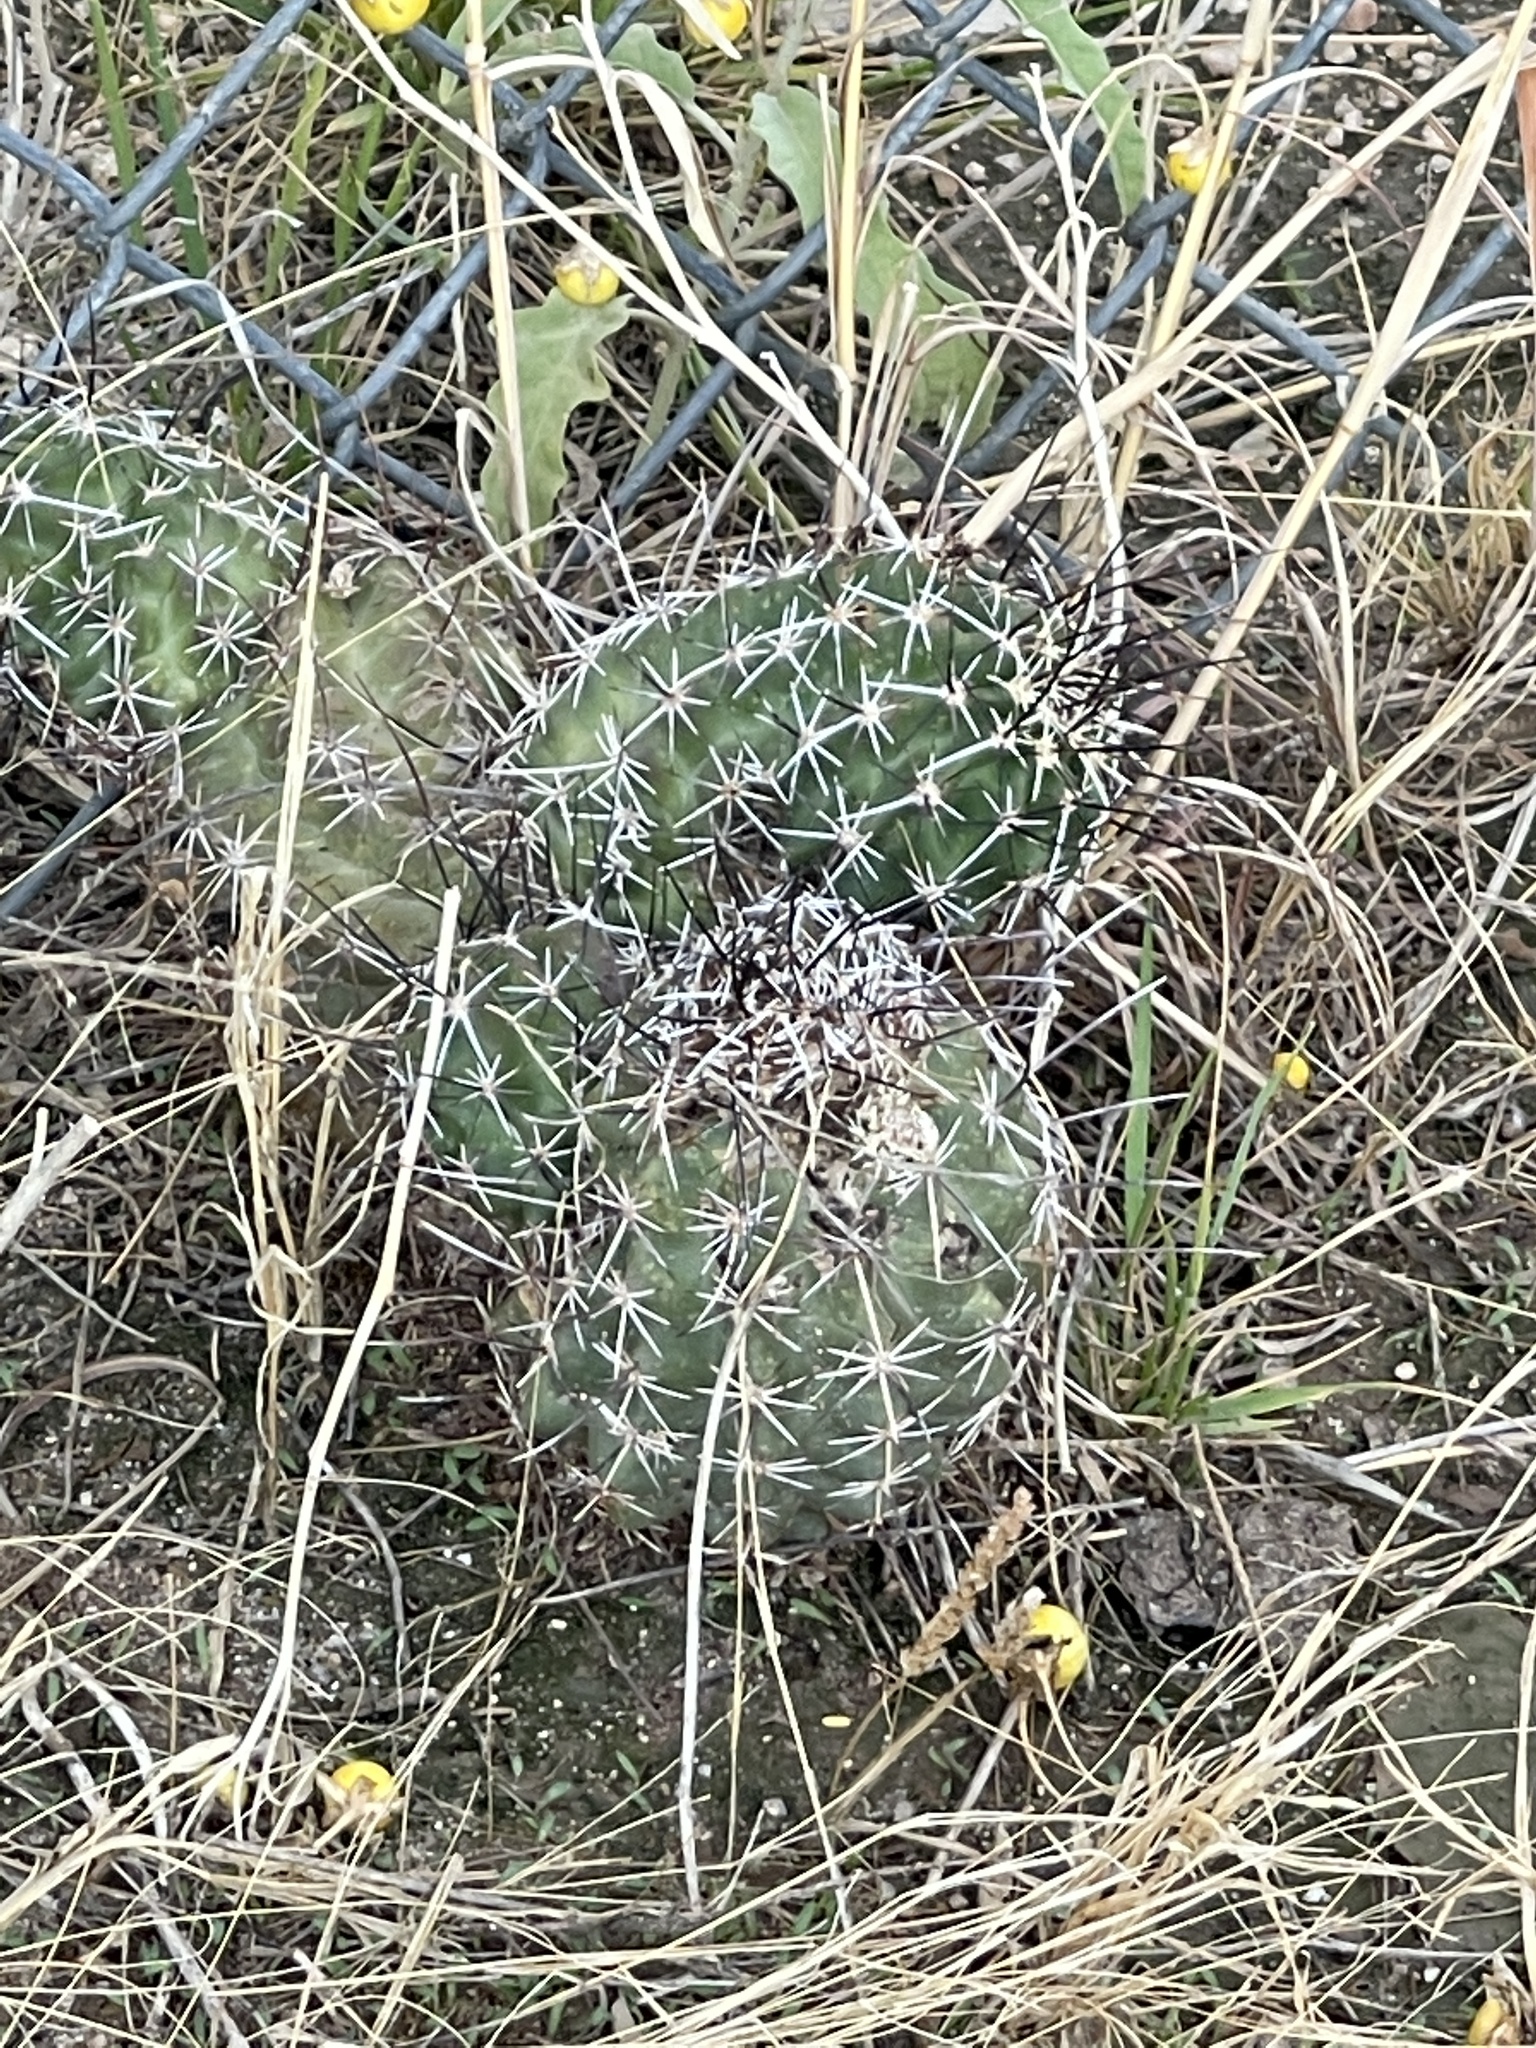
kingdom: Plantae
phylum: Tracheophyta
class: Magnoliopsida
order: Caryophyllales
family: Cactaceae
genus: Echinocereus
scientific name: Echinocereus fasciculatus
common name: Bundle hedgehog
